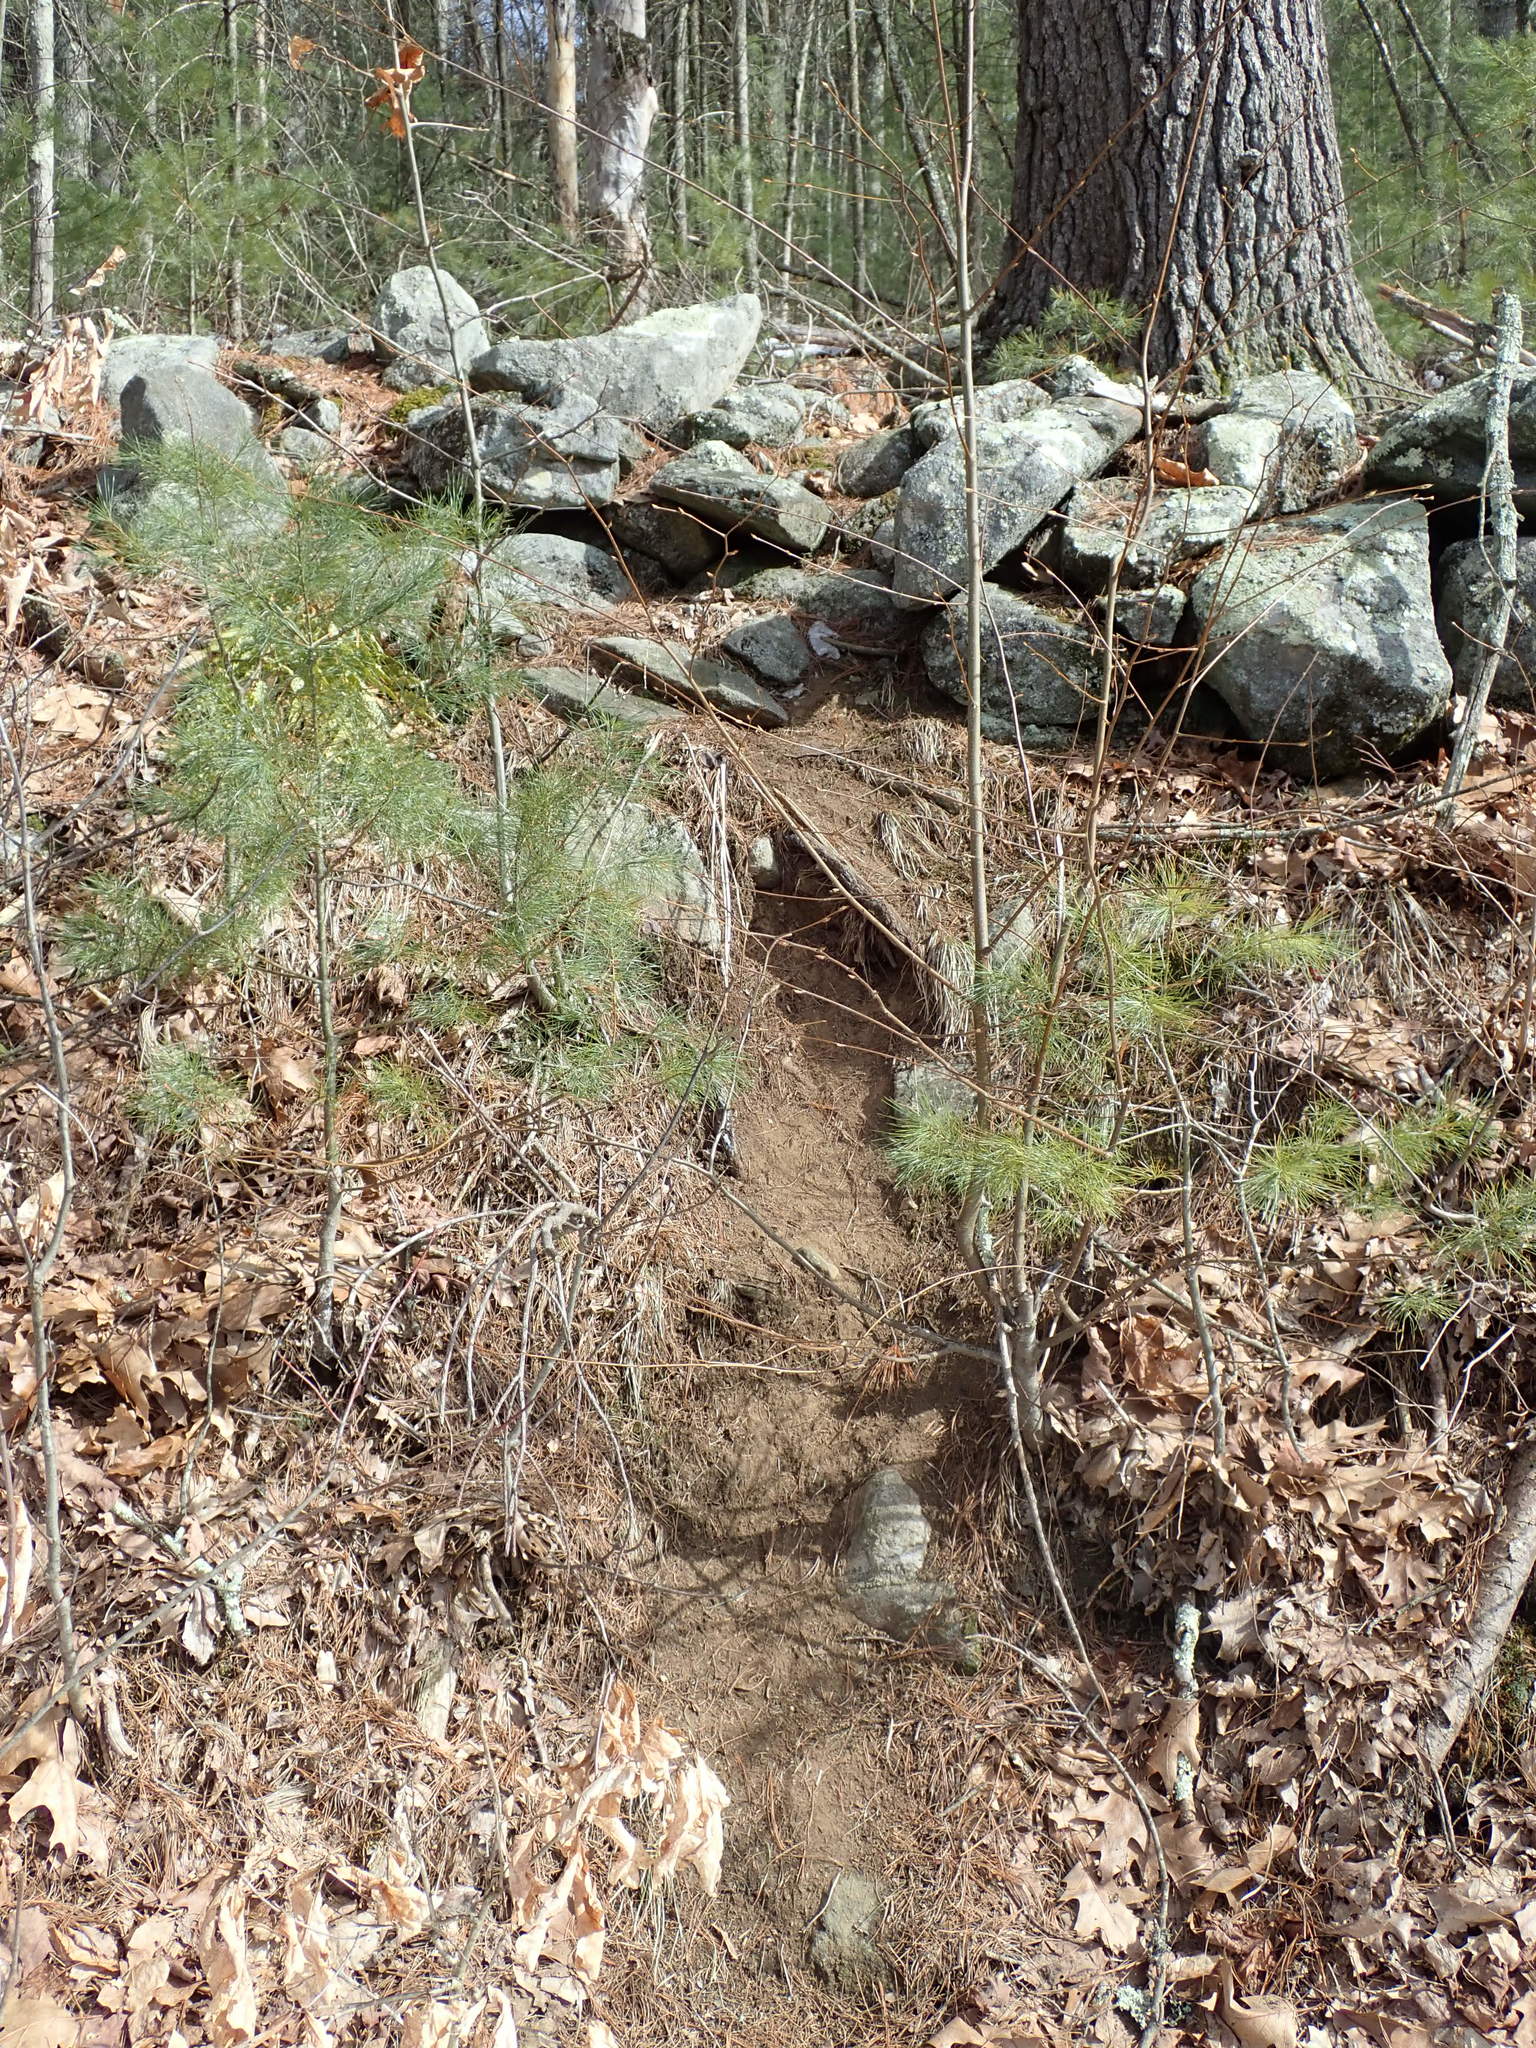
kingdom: Animalia
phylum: Chordata
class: Mammalia
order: Rodentia
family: Erethizontidae
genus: Erethizon
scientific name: Erethizon dorsatus
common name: North american porcupine
